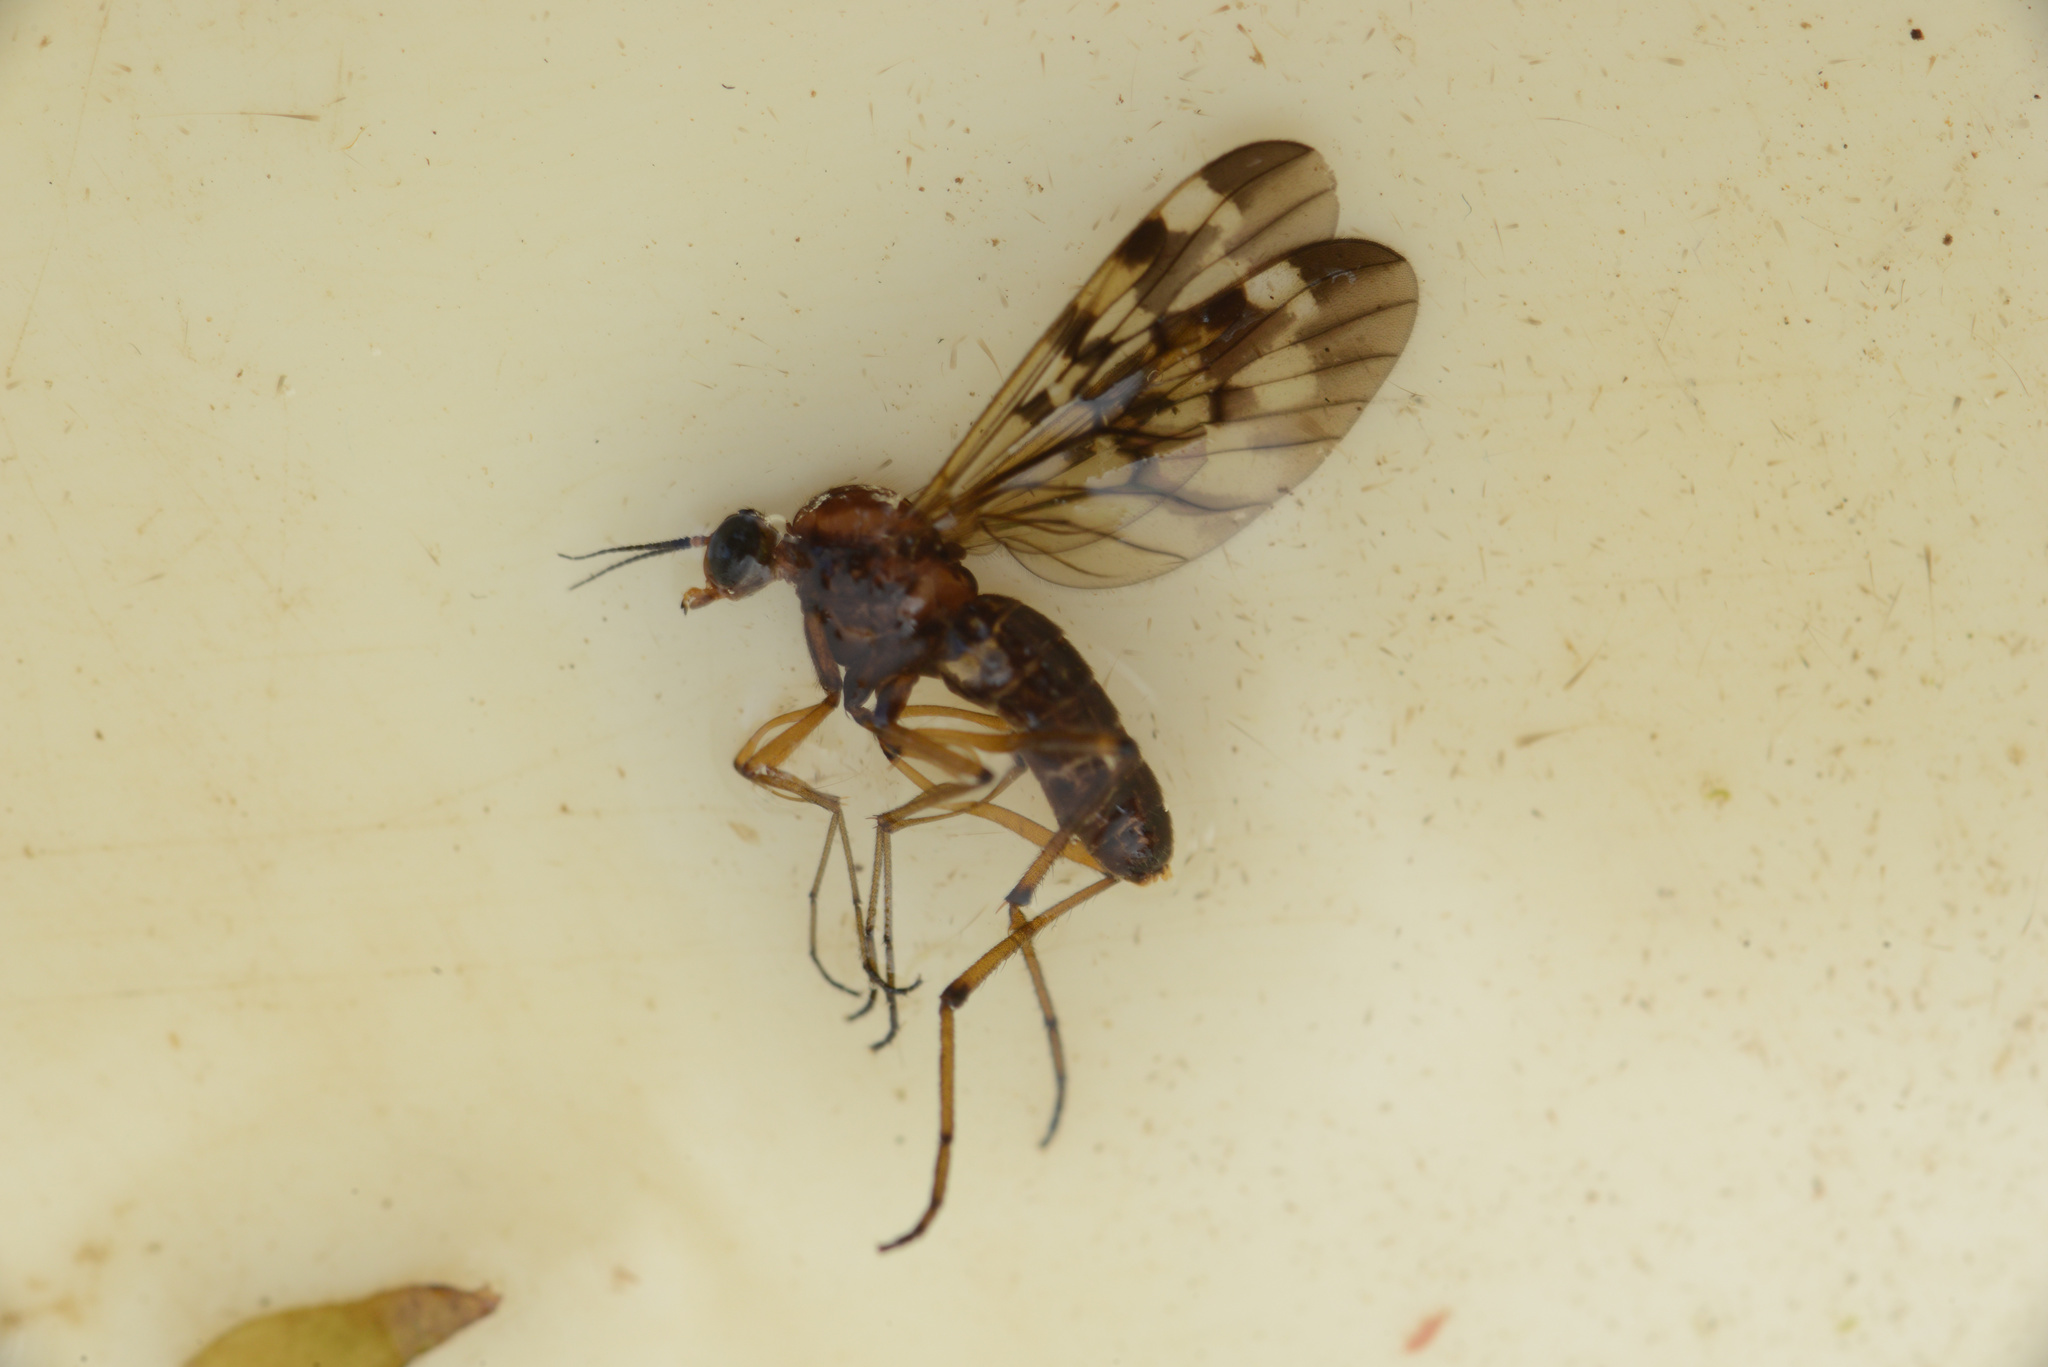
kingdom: Animalia
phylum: Arthropoda
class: Insecta
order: Diptera
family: Anisopodidae
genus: Sylvicola
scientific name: Sylvicola notatus
